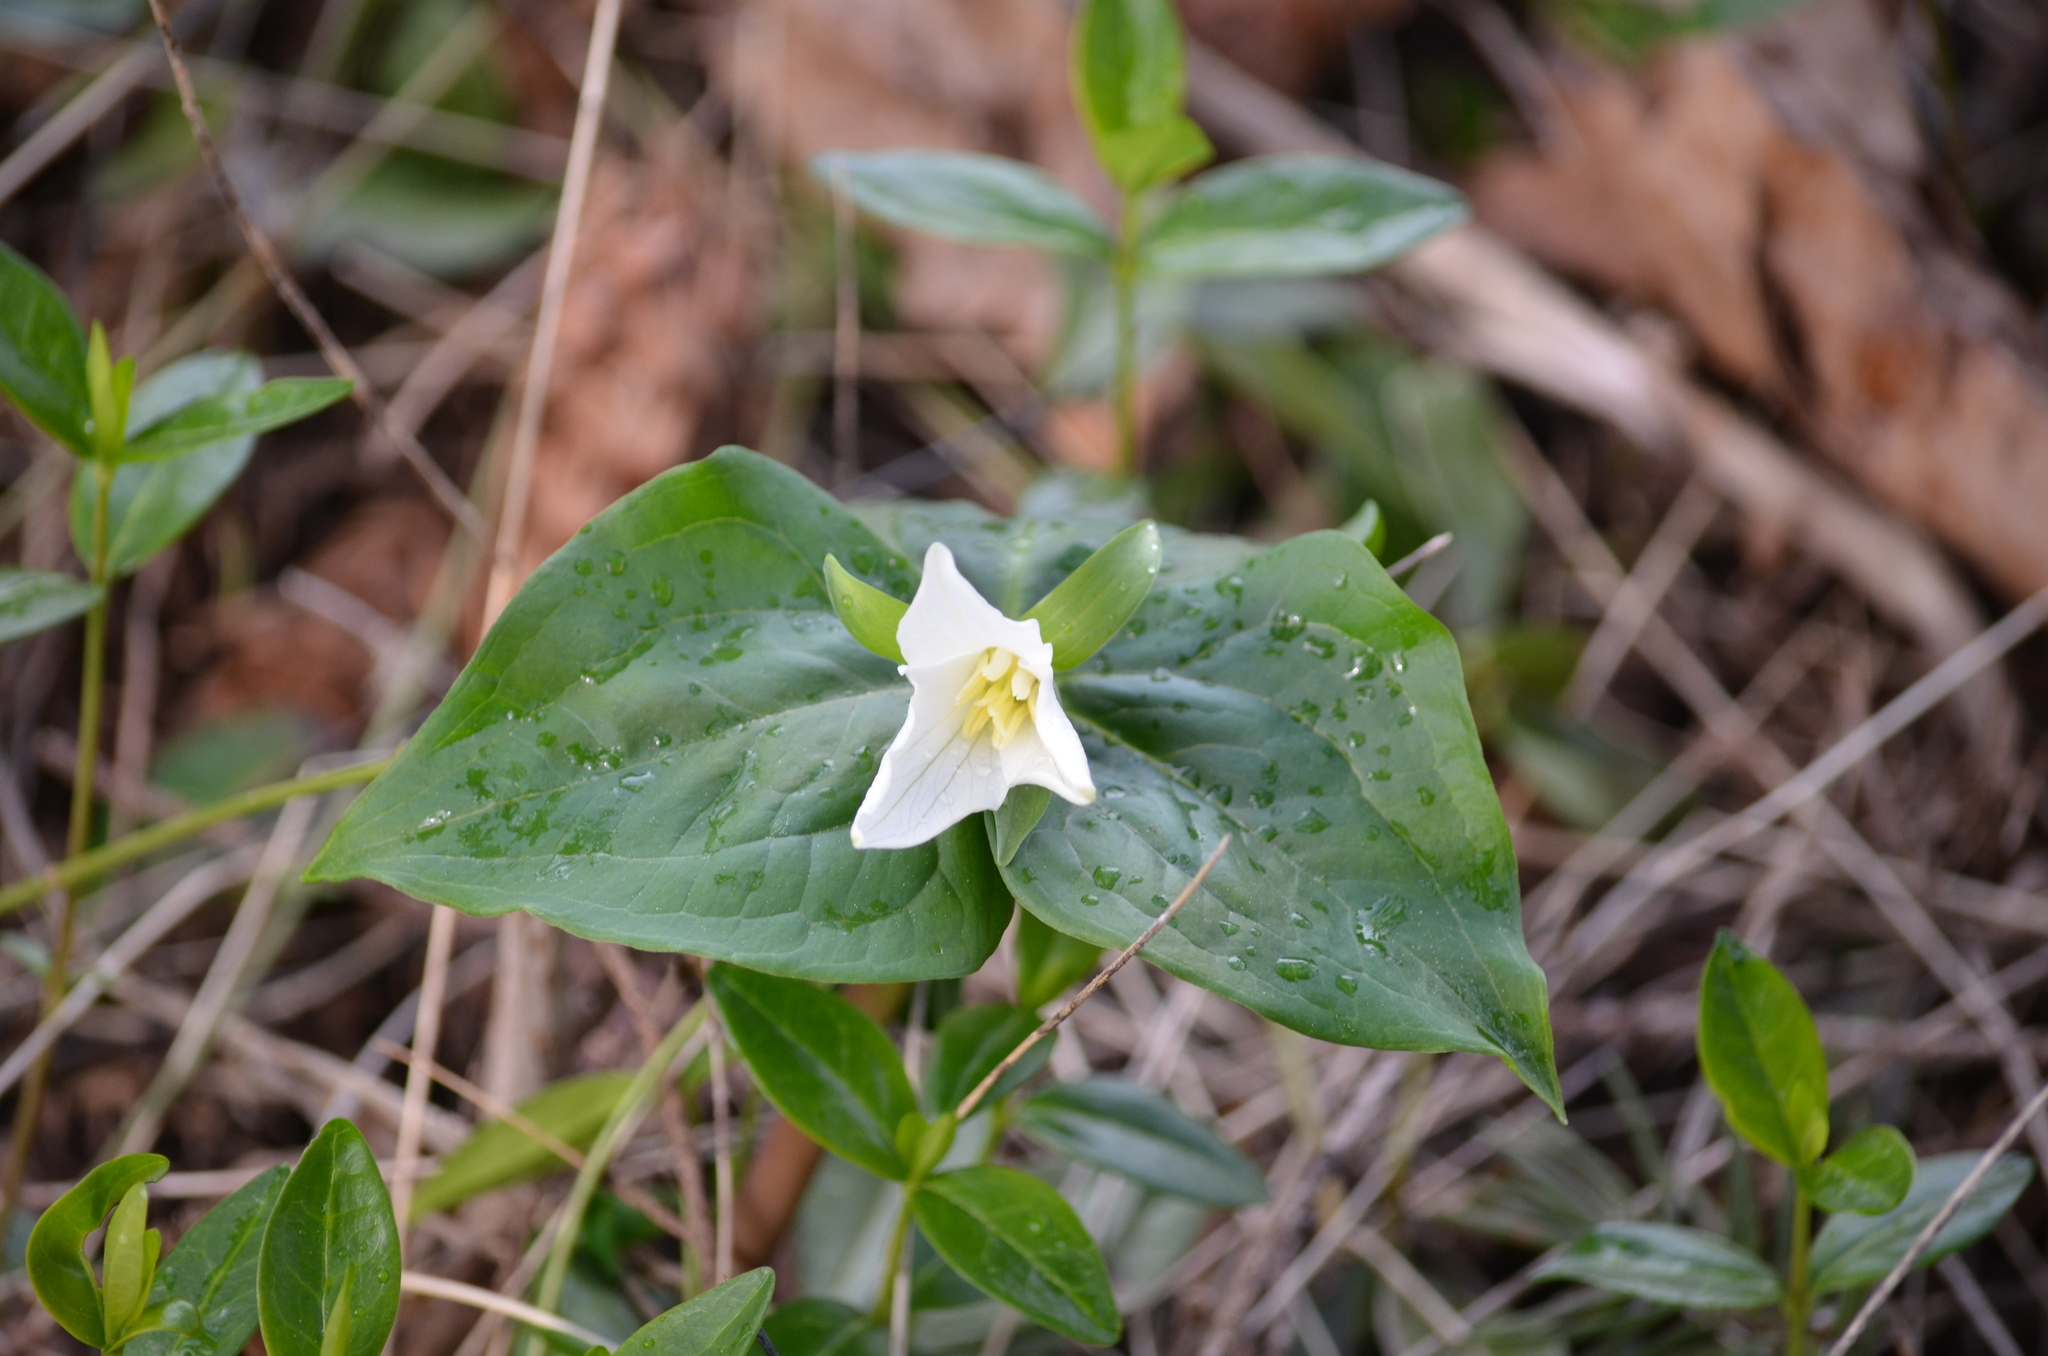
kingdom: Plantae
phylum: Tracheophyta
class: Liliopsida
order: Liliales
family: Melanthiaceae
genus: Trillium
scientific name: Trillium ovatum
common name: Pacific trillium
